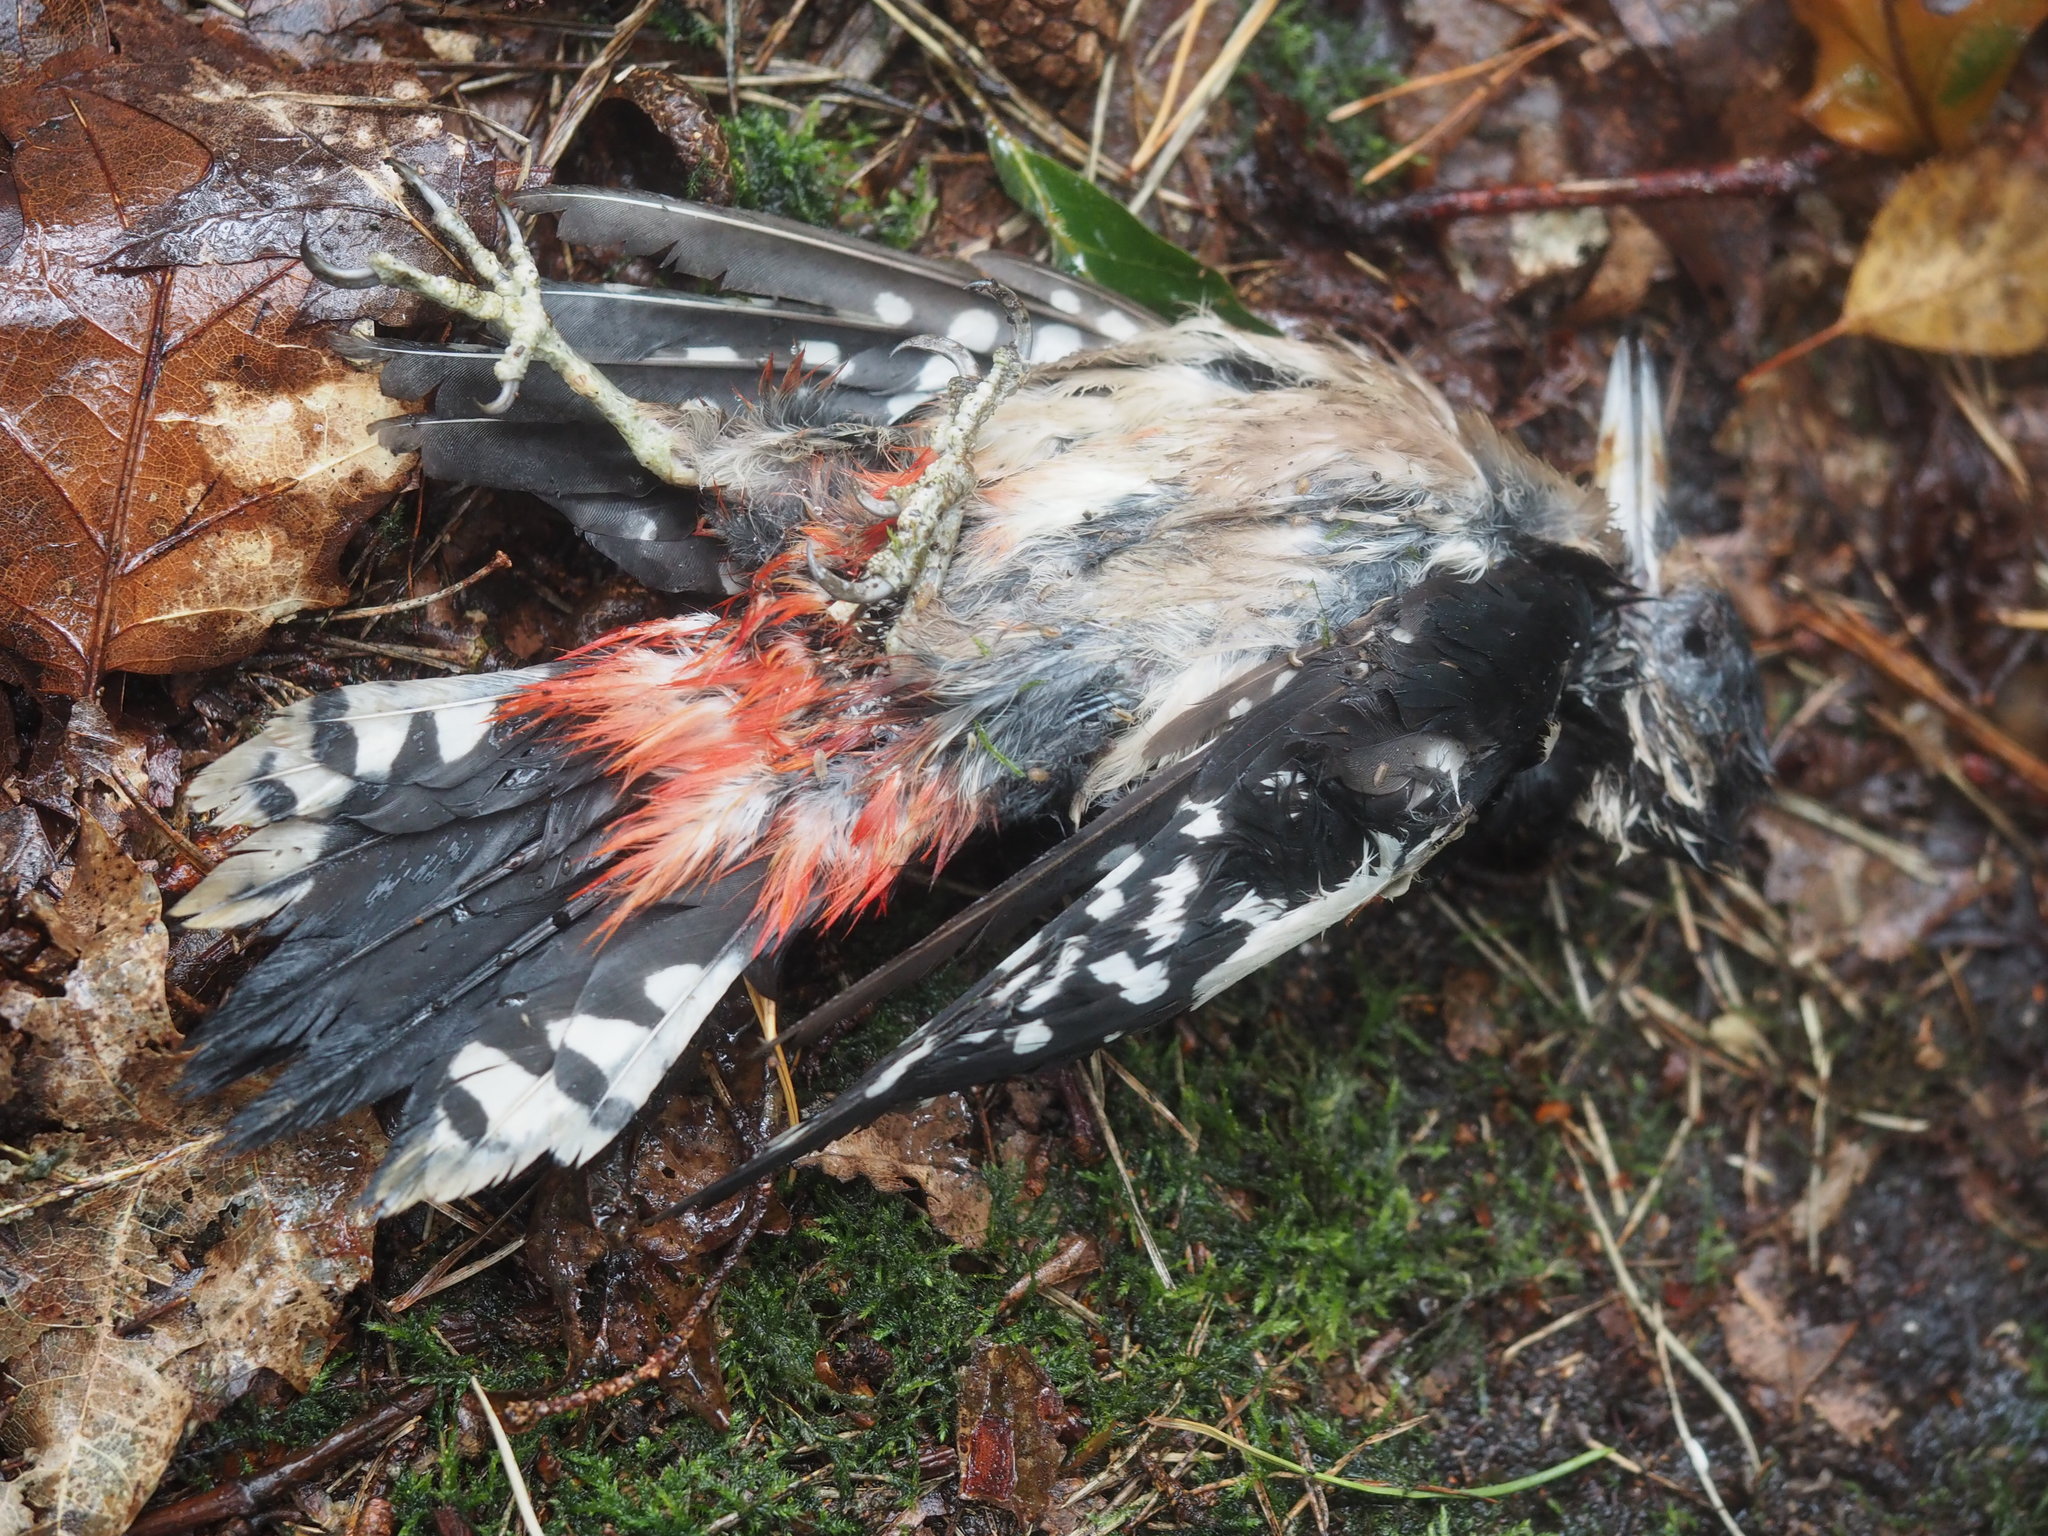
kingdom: Animalia
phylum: Chordata
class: Aves
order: Piciformes
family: Picidae
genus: Dendrocopos
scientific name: Dendrocopos major
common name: Great spotted woodpecker
